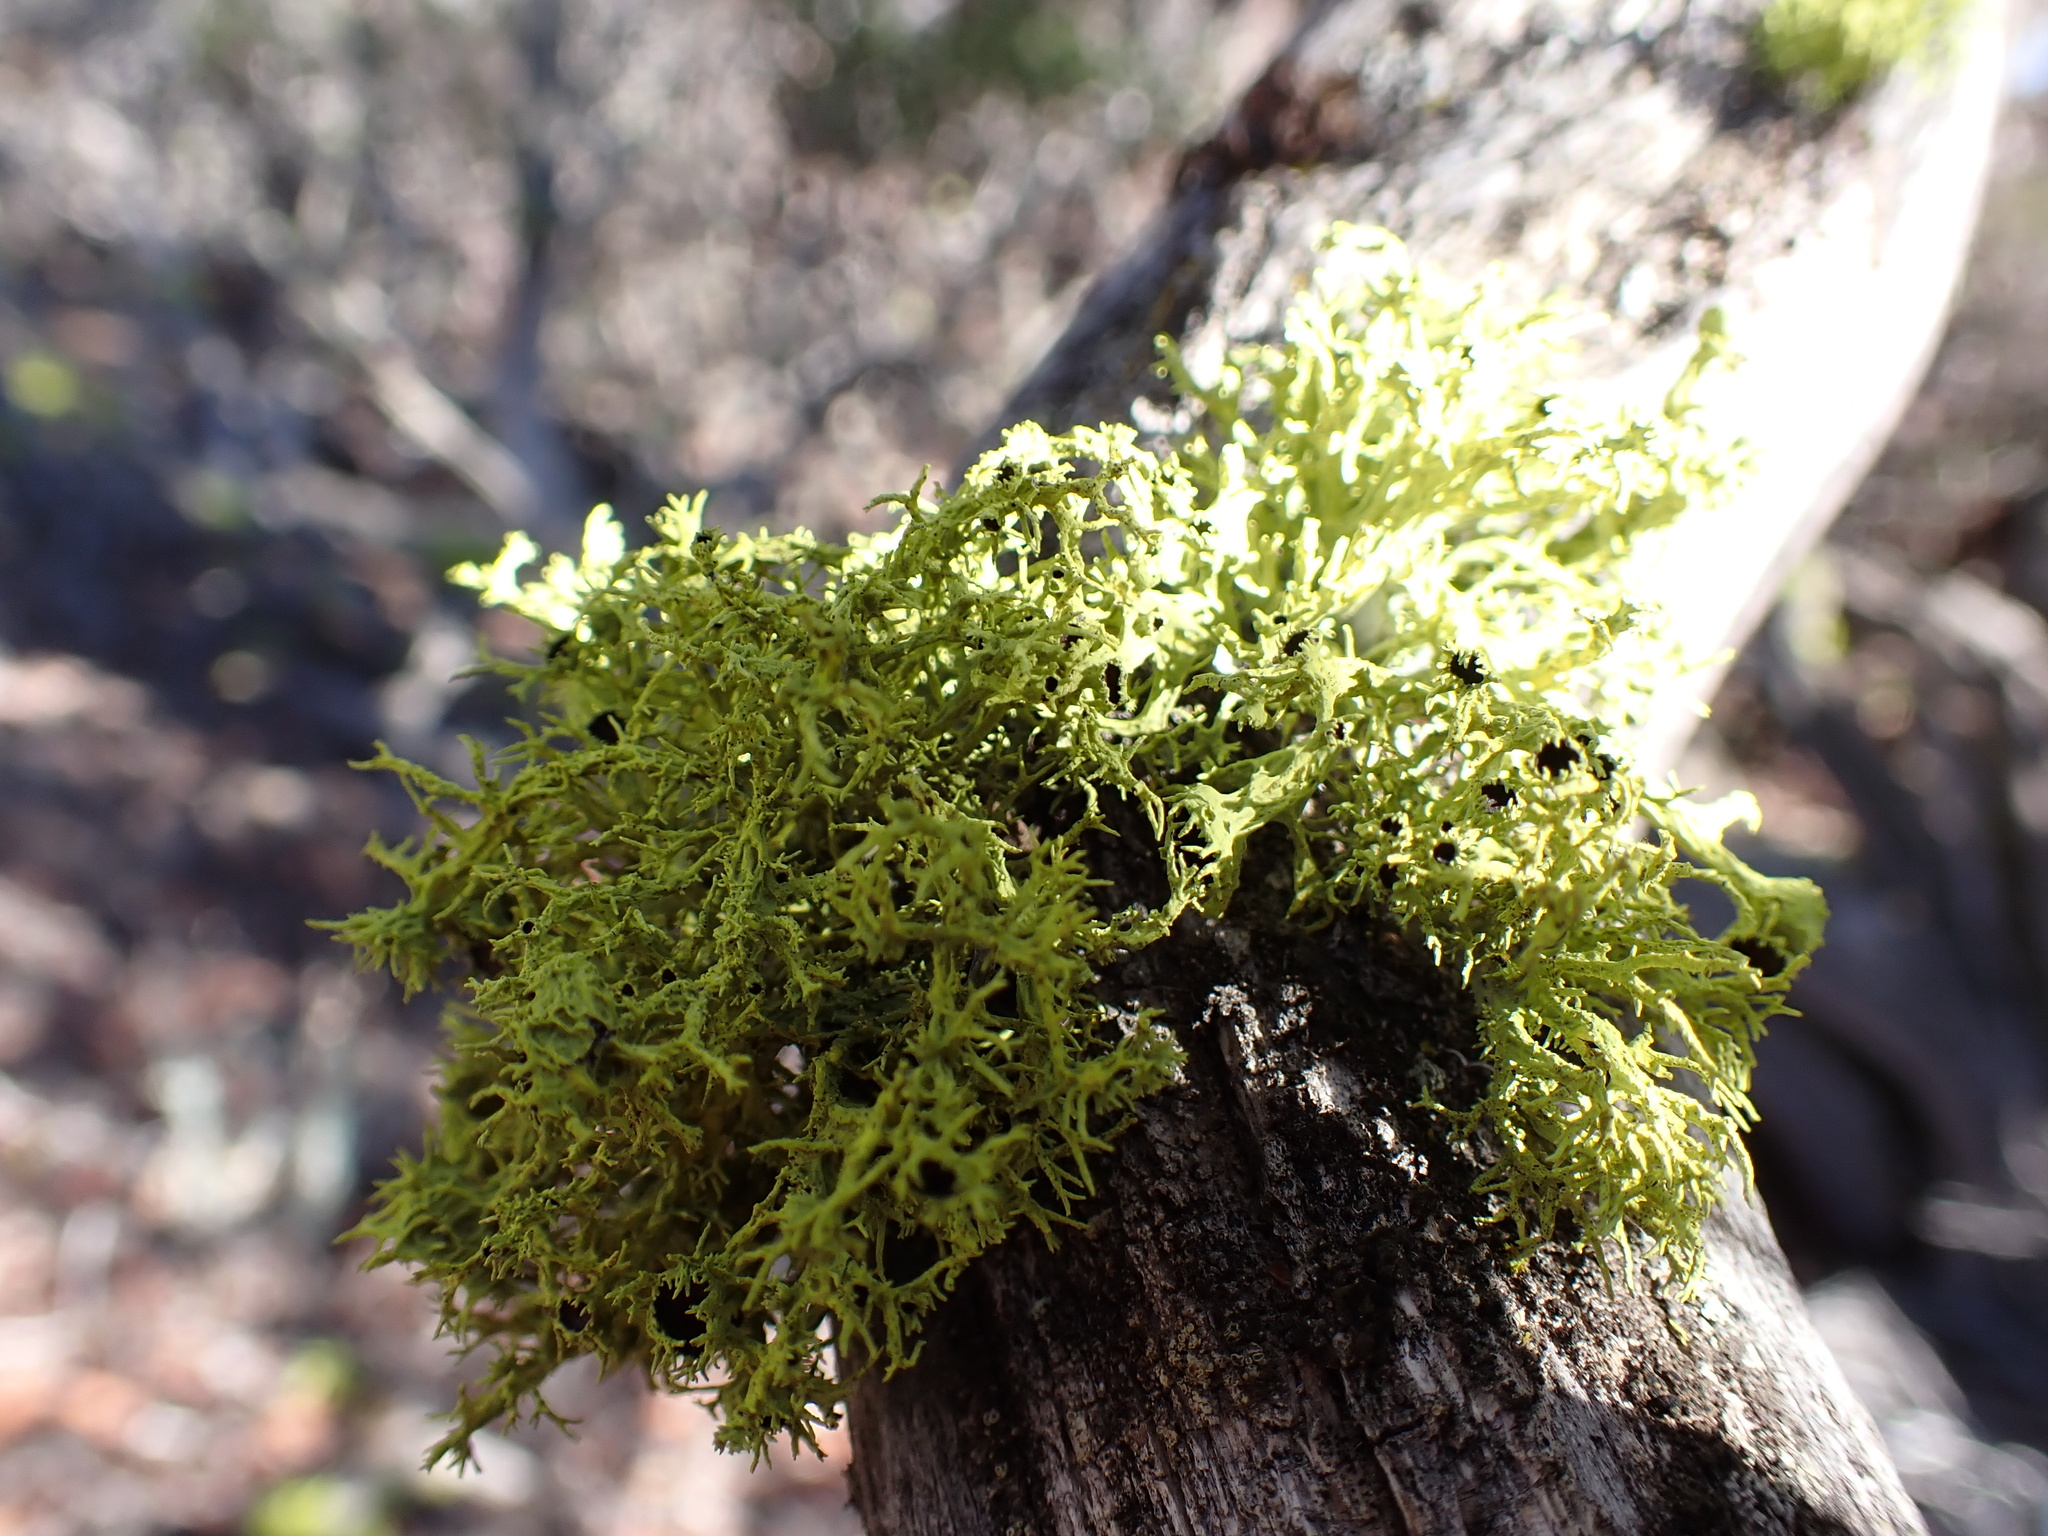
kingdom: Fungi
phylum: Ascomycota
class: Lecanoromycetes
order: Lecanorales
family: Parmeliaceae
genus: Letharia
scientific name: Letharia columbiana
